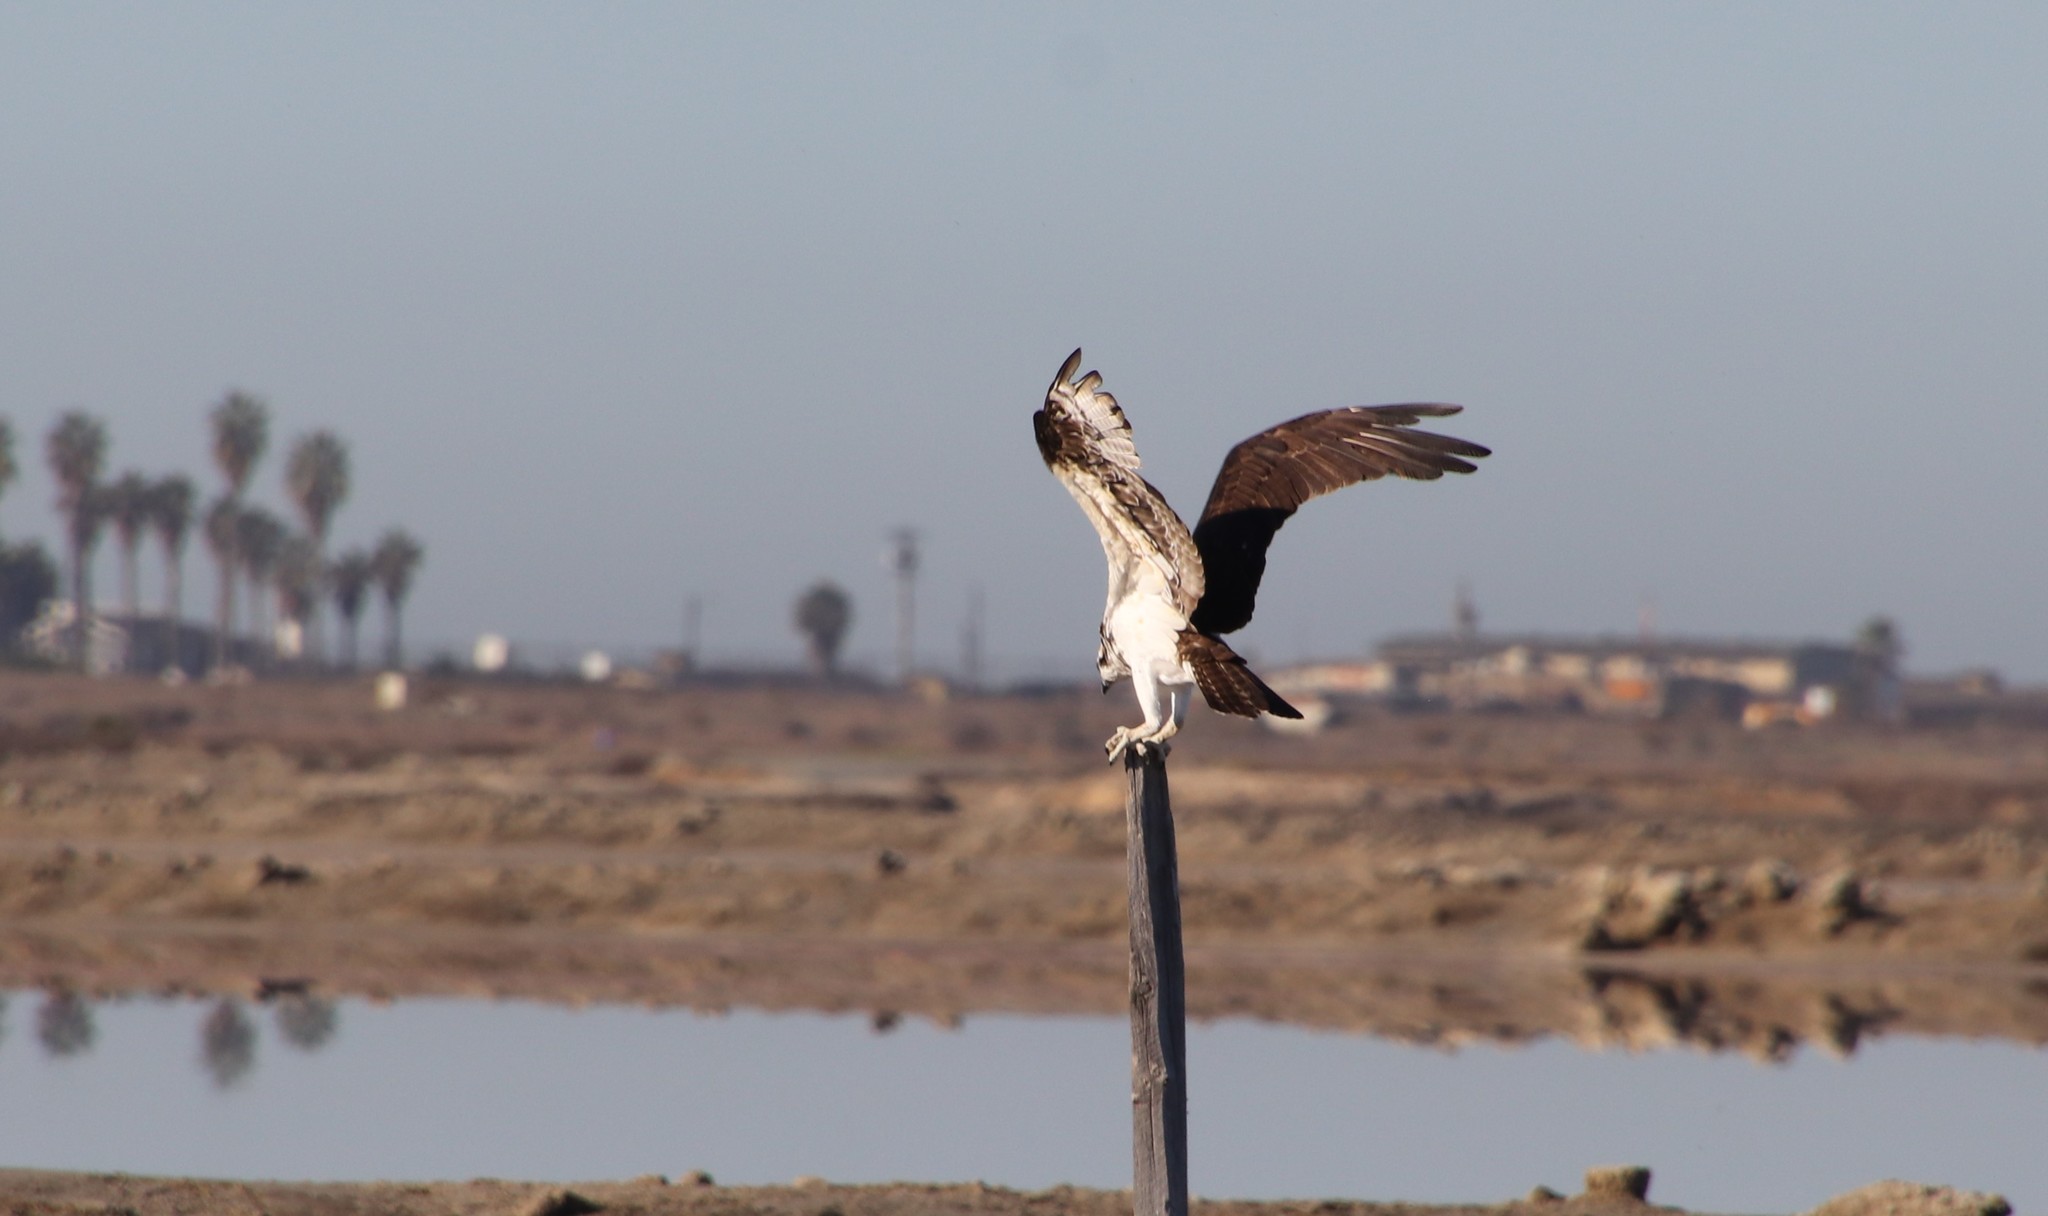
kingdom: Animalia
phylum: Chordata
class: Aves
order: Accipitriformes
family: Pandionidae
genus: Pandion
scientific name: Pandion haliaetus
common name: Osprey
